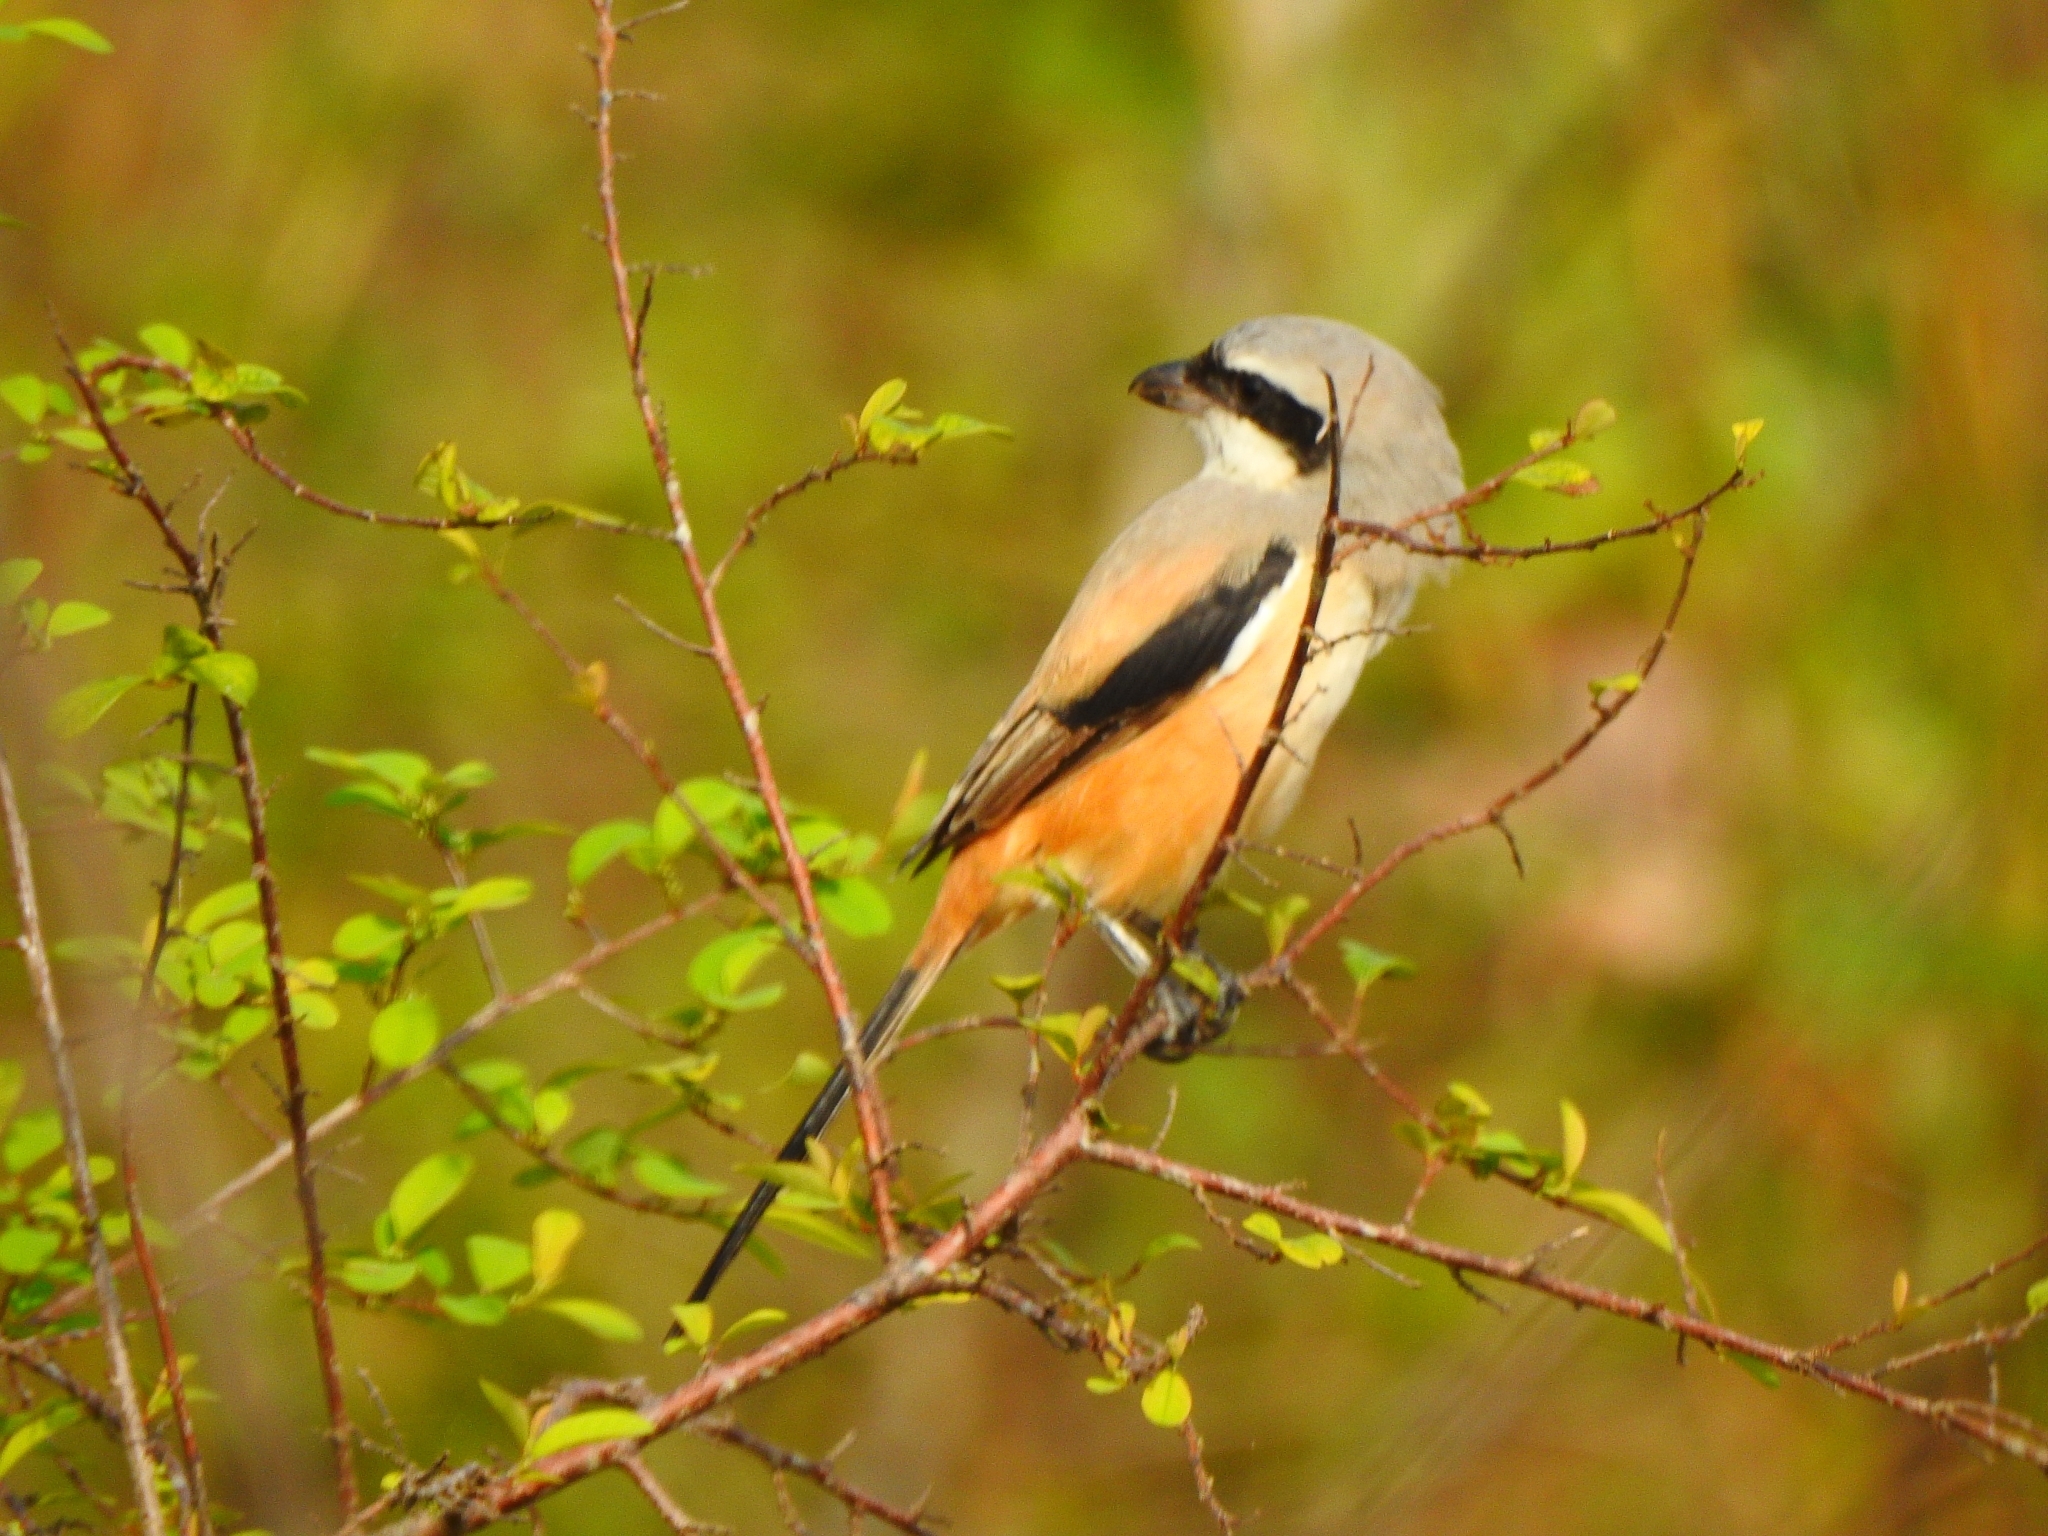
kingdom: Animalia
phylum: Chordata
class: Aves
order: Passeriformes
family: Laniidae
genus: Lanius
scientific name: Lanius schach
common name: Long-tailed shrike
